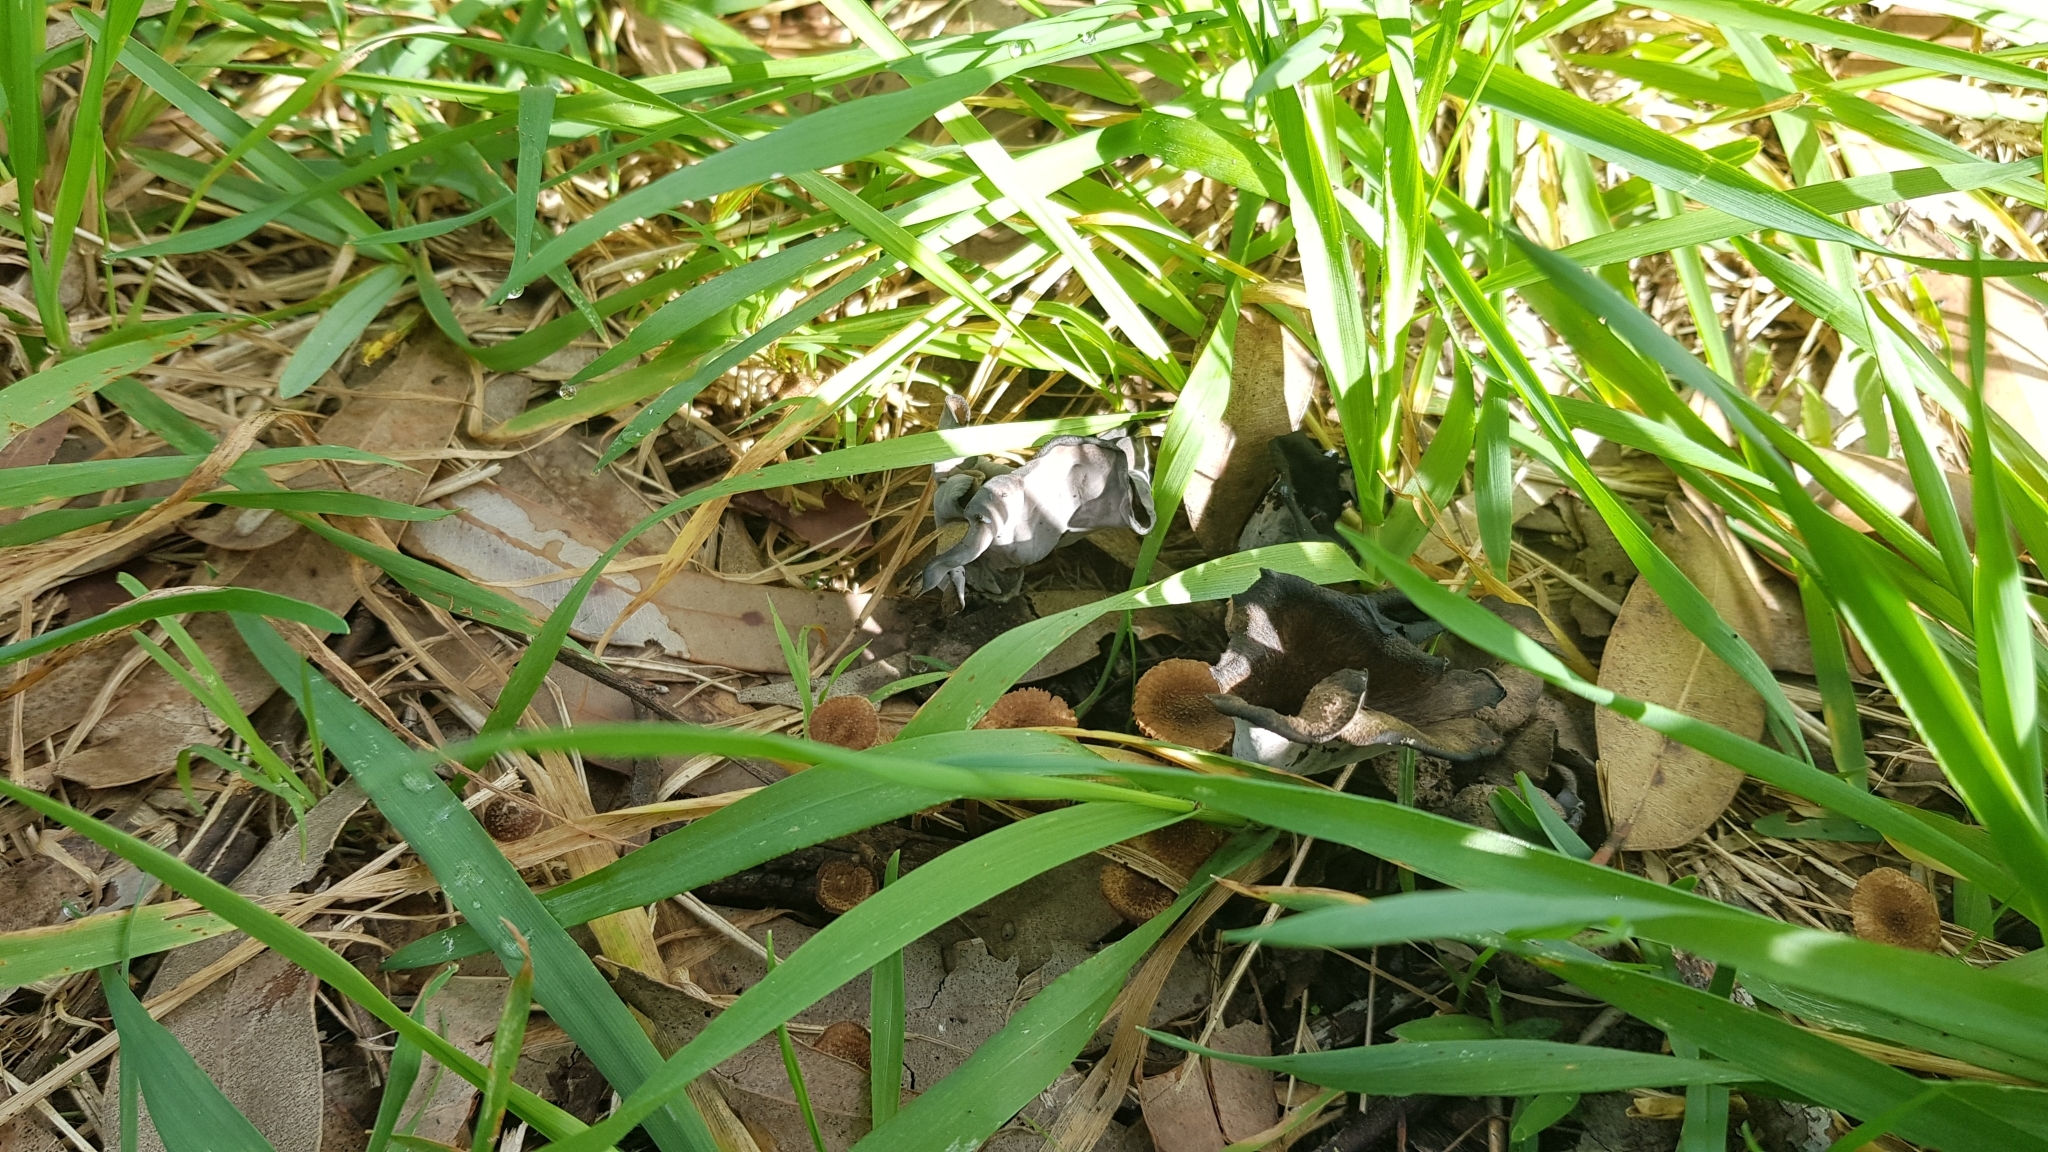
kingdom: Fungi
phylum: Basidiomycota
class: Agaricomycetes
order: Cantharellales
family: Hydnaceae
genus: Craterellus
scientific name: Craterellus cornucopioides
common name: Horn of plenty
